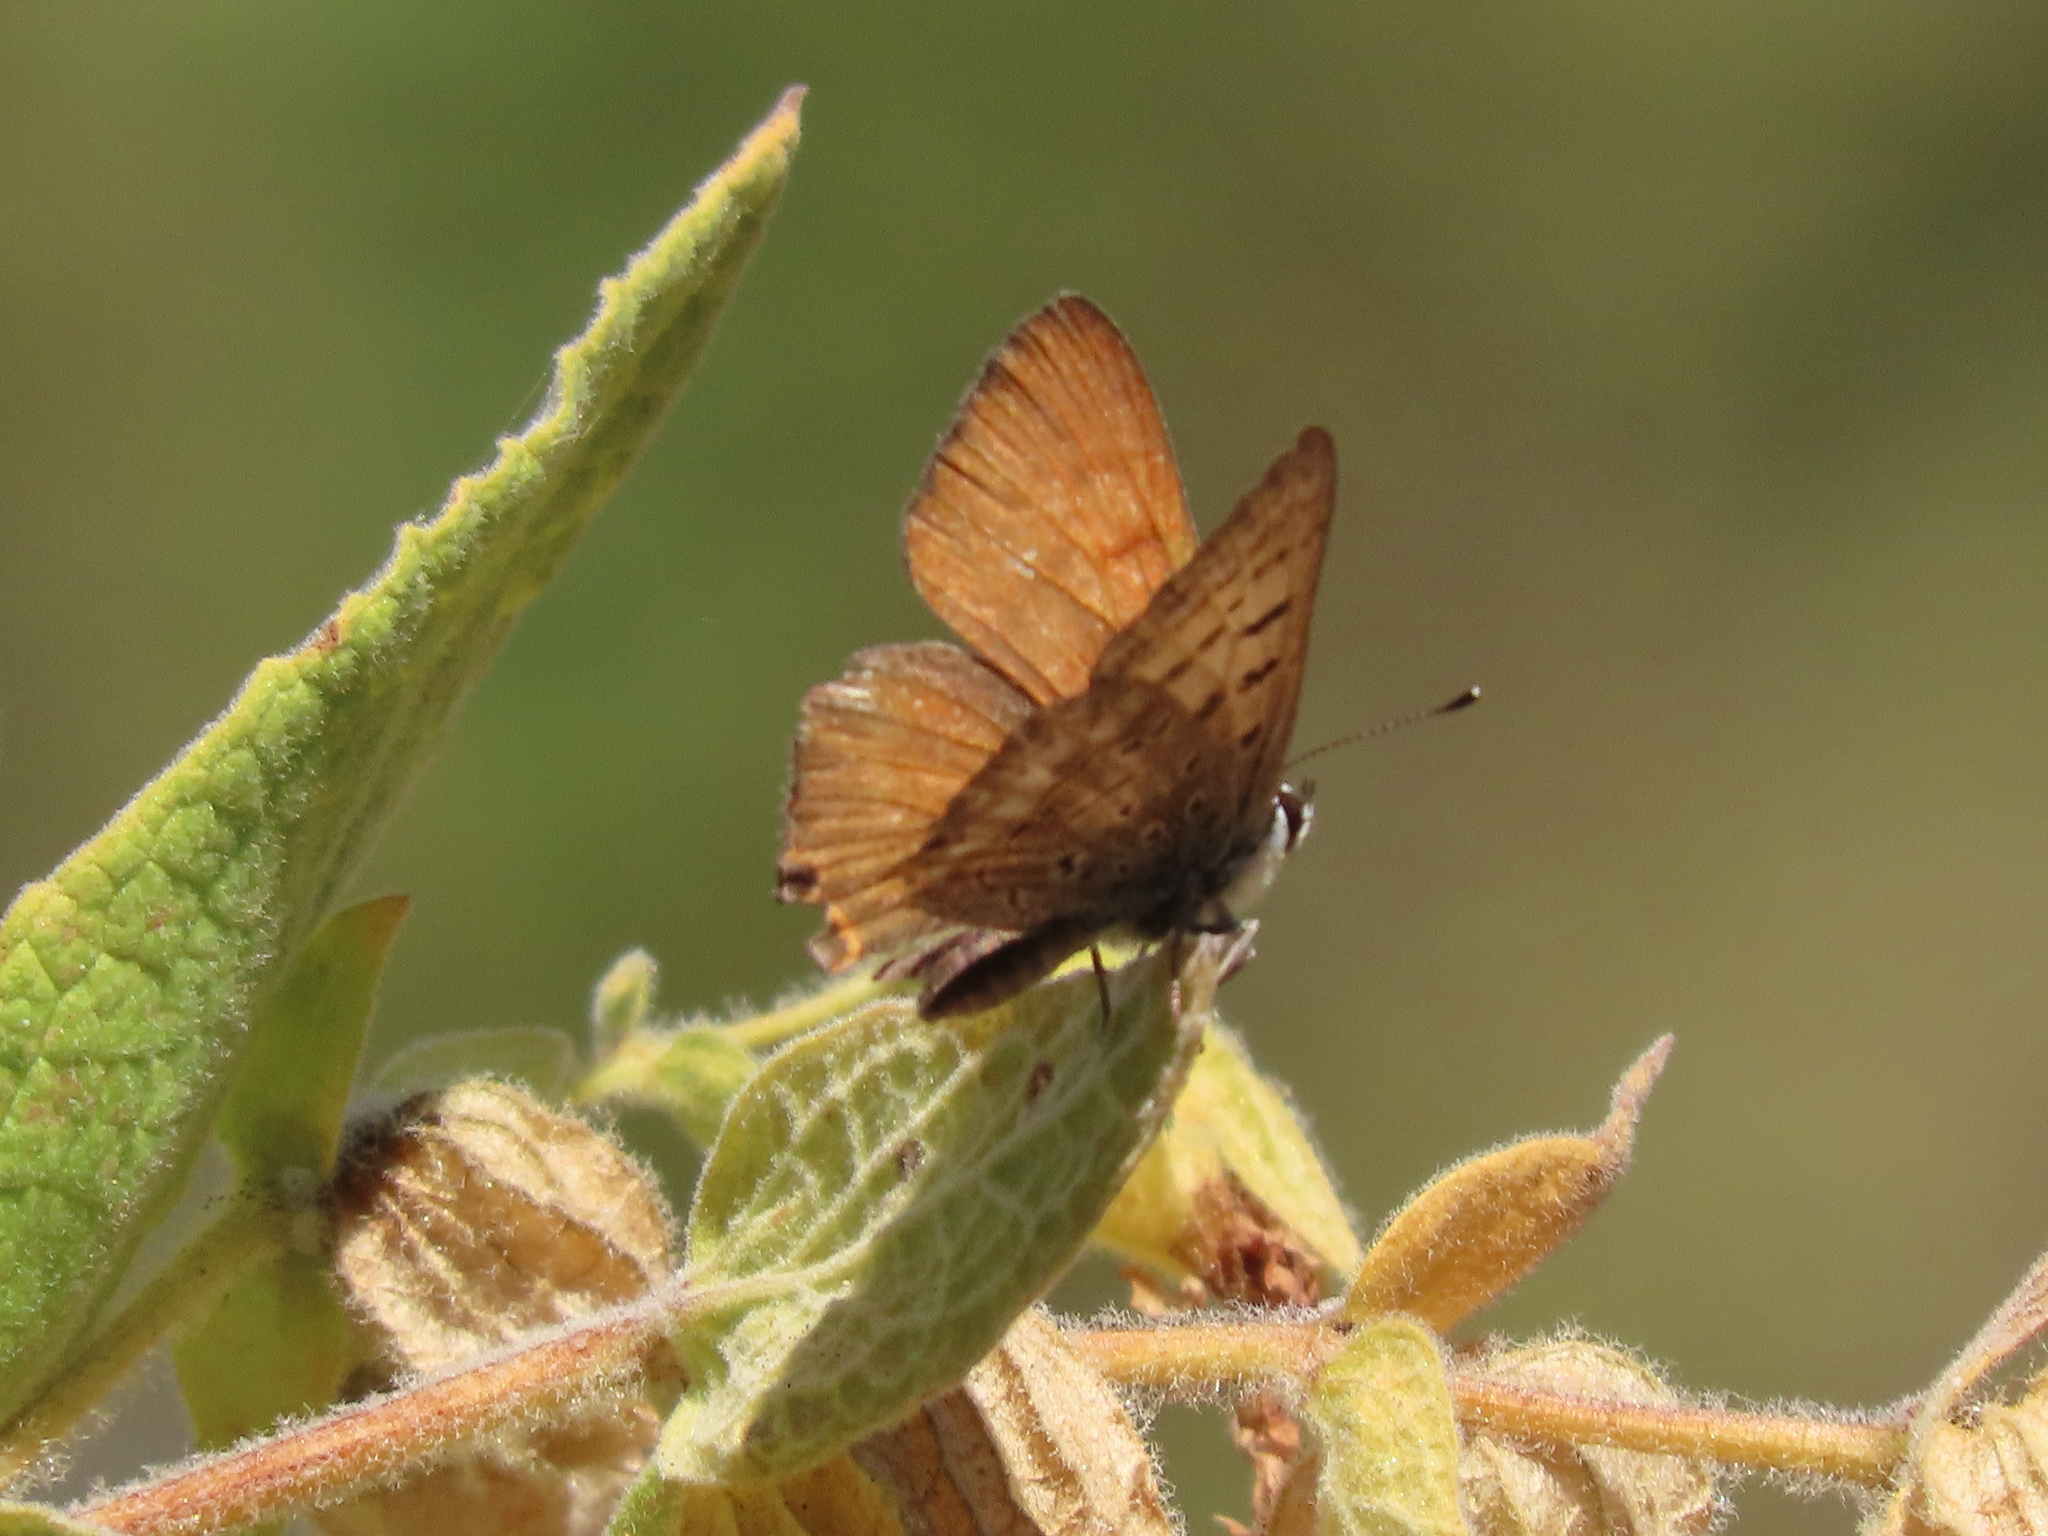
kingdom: Animalia
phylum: Arthropoda
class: Insecta
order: Lepidoptera
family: Lycaenidae
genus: Tharsalea
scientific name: Tharsalea arota
